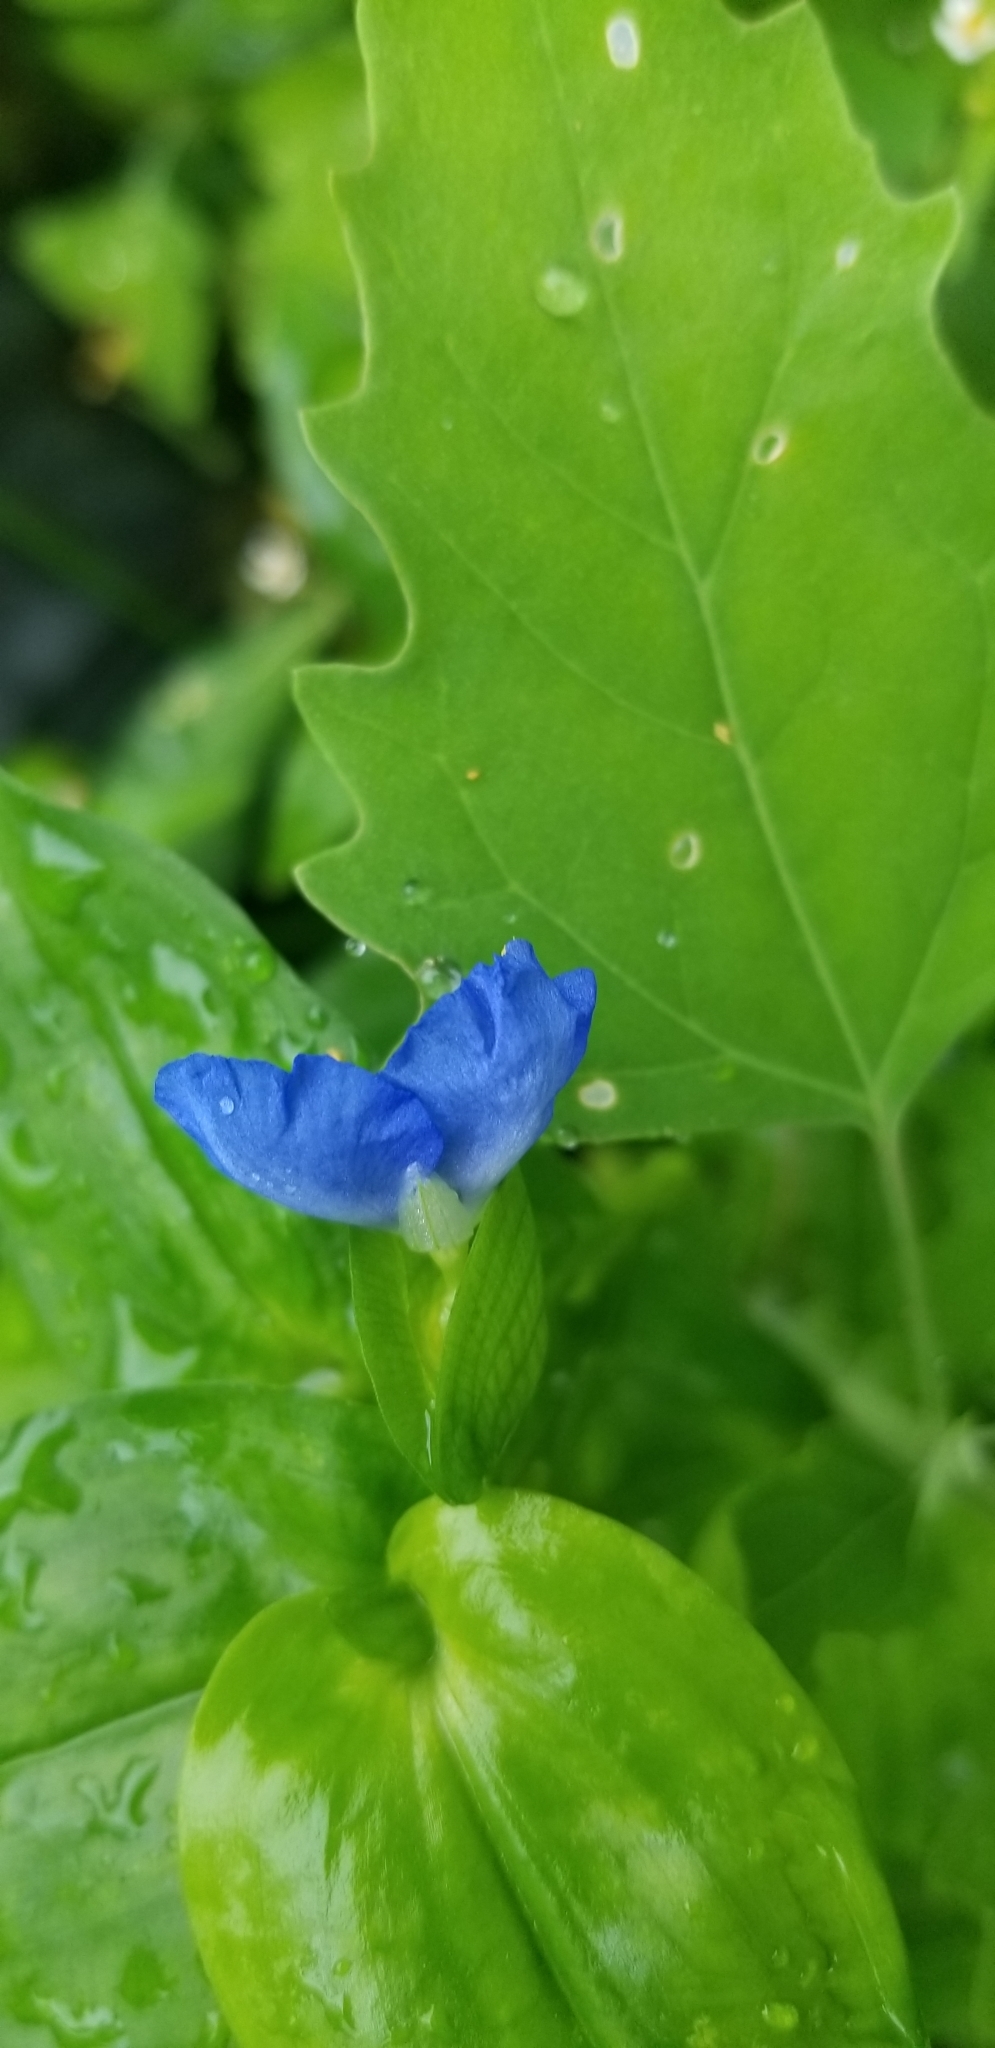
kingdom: Plantae
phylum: Tracheophyta
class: Liliopsida
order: Commelinales
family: Commelinaceae
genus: Commelina
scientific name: Commelina communis
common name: Asiatic dayflower
